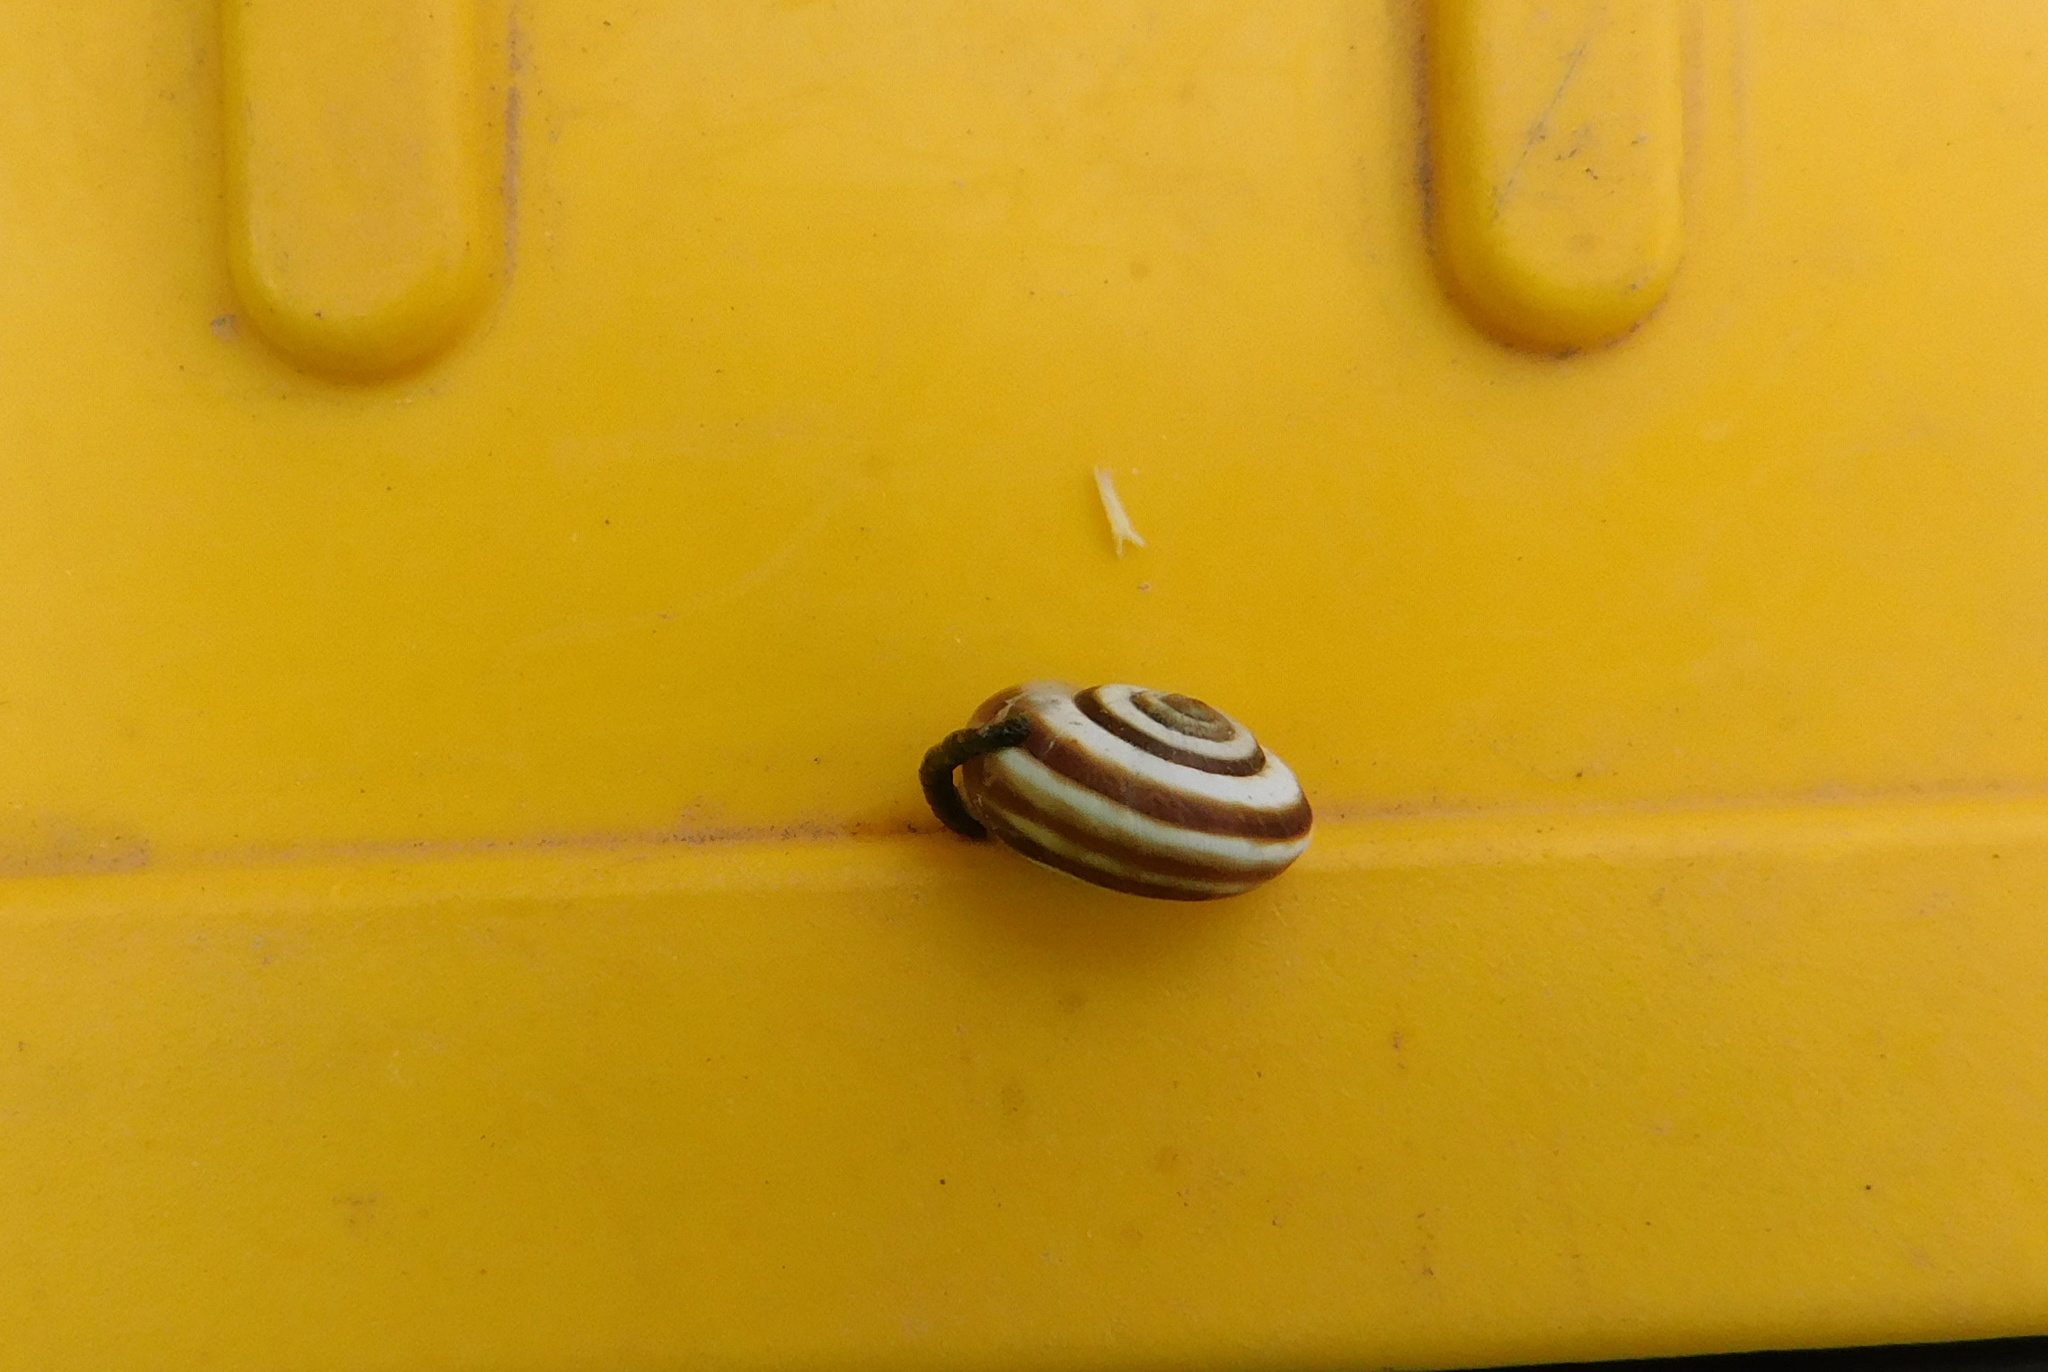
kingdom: Animalia
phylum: Mollusca
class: Gastropoda
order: Stylommatophora
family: Geomitridae
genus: Xerolenta
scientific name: Xerolenta obvia
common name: White heath snail
